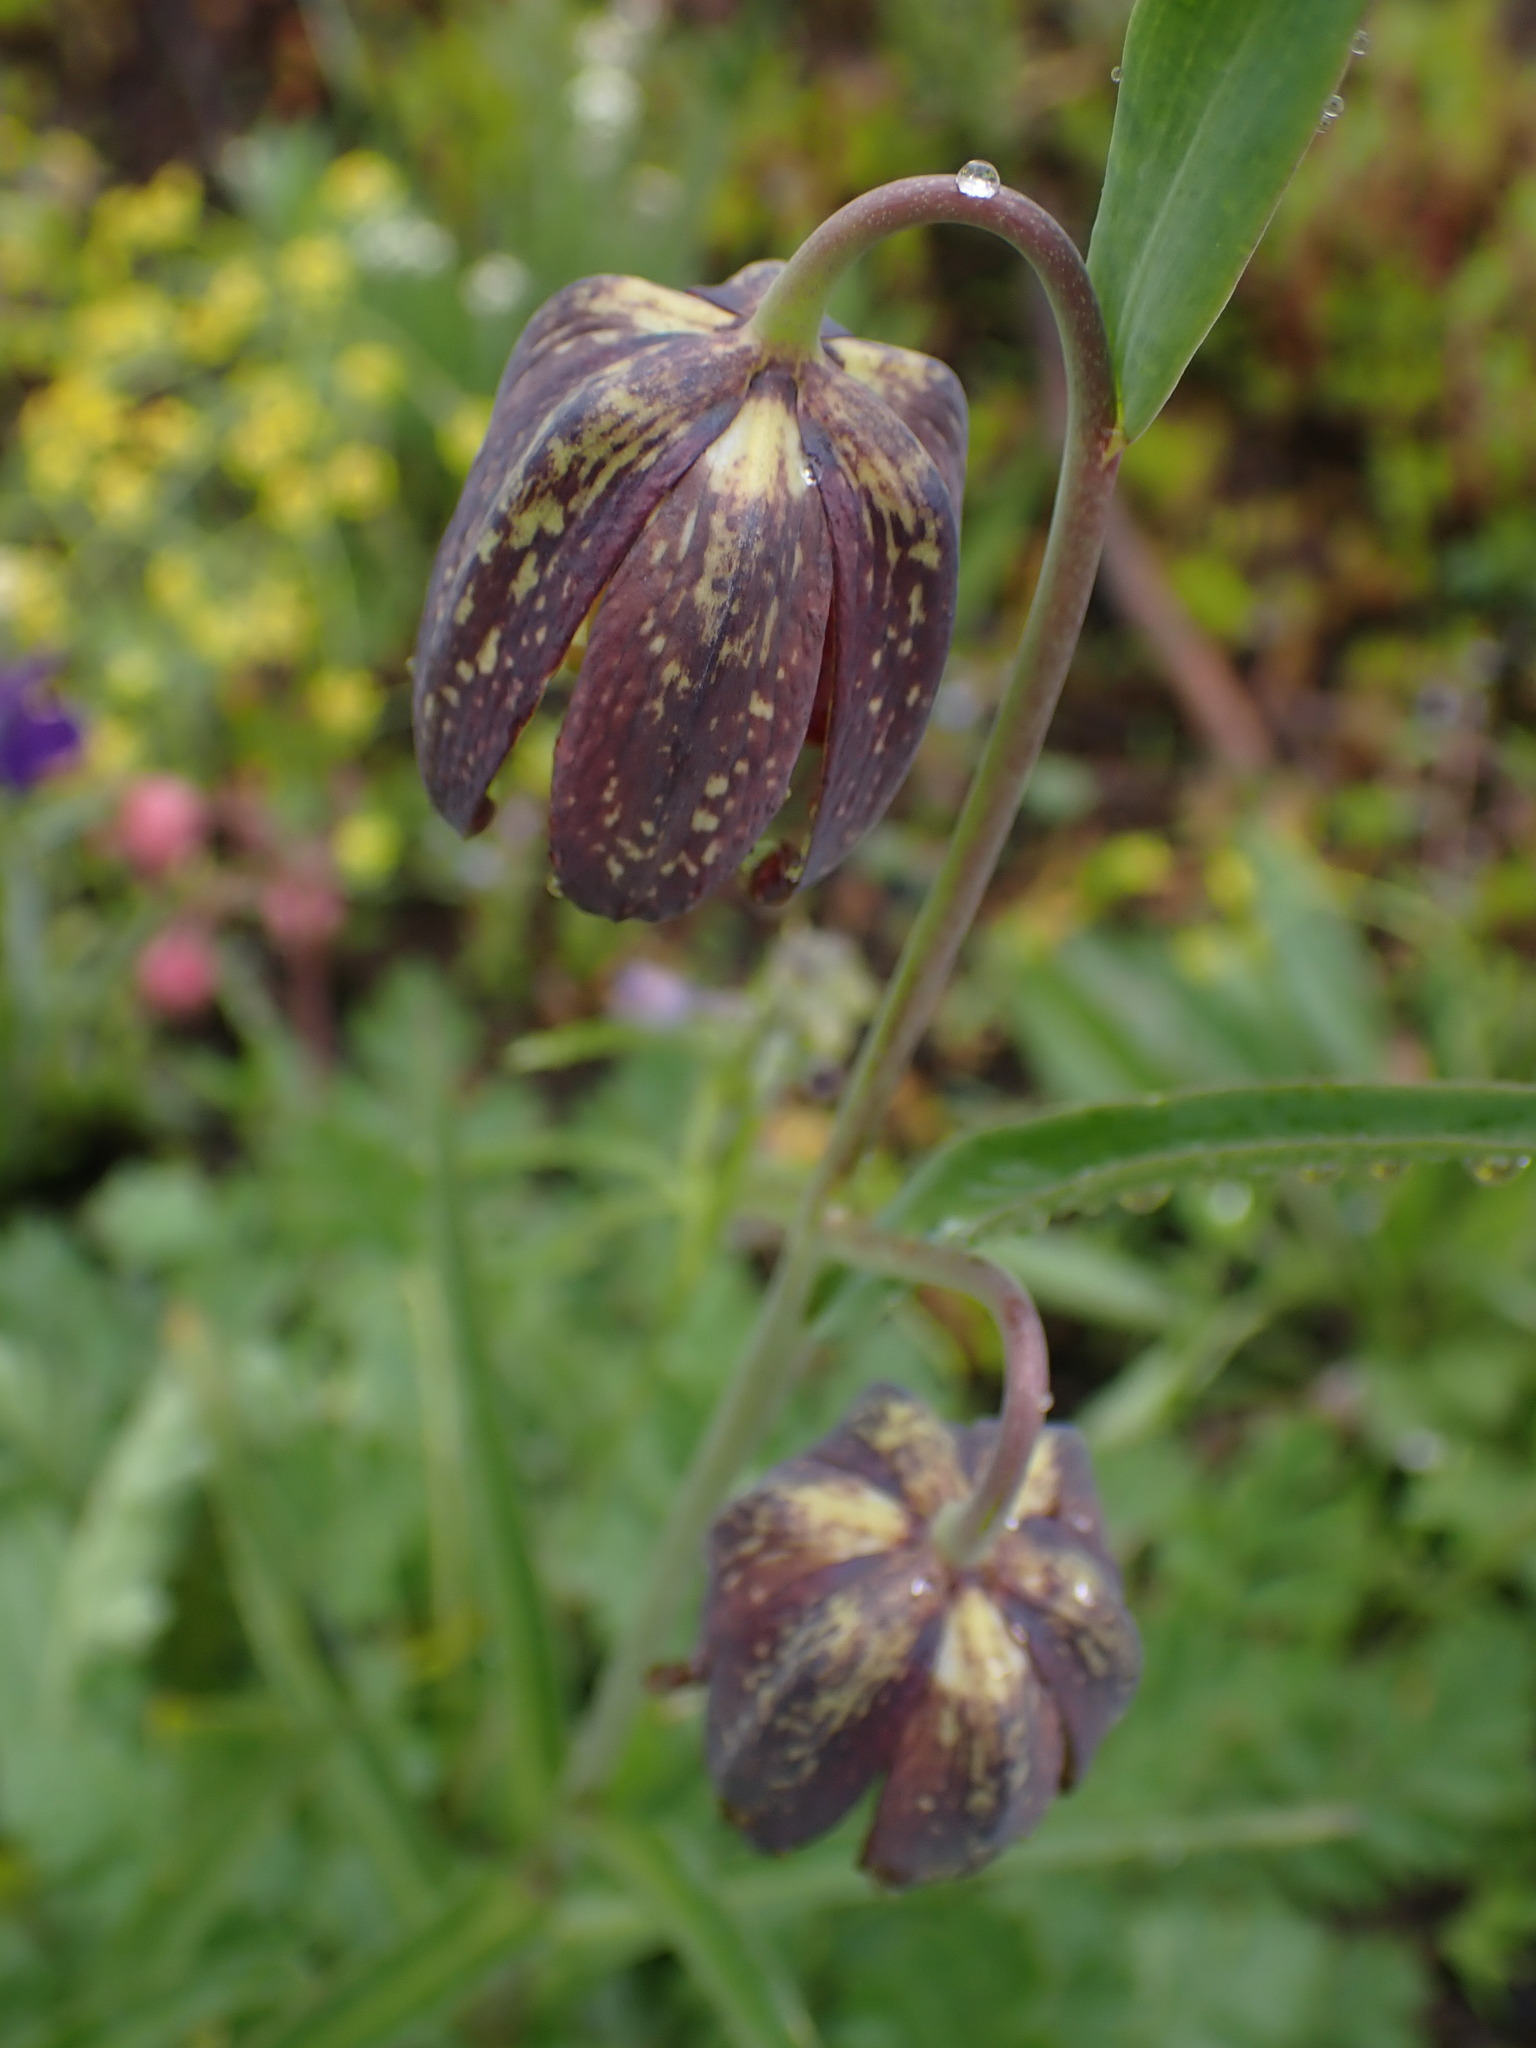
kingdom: Plantae
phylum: Tracheophyta
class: Liliopsida
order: Liliales
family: Liliaceae
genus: Fritillaria
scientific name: Fritillaria affinis
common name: Ojai fritillary
